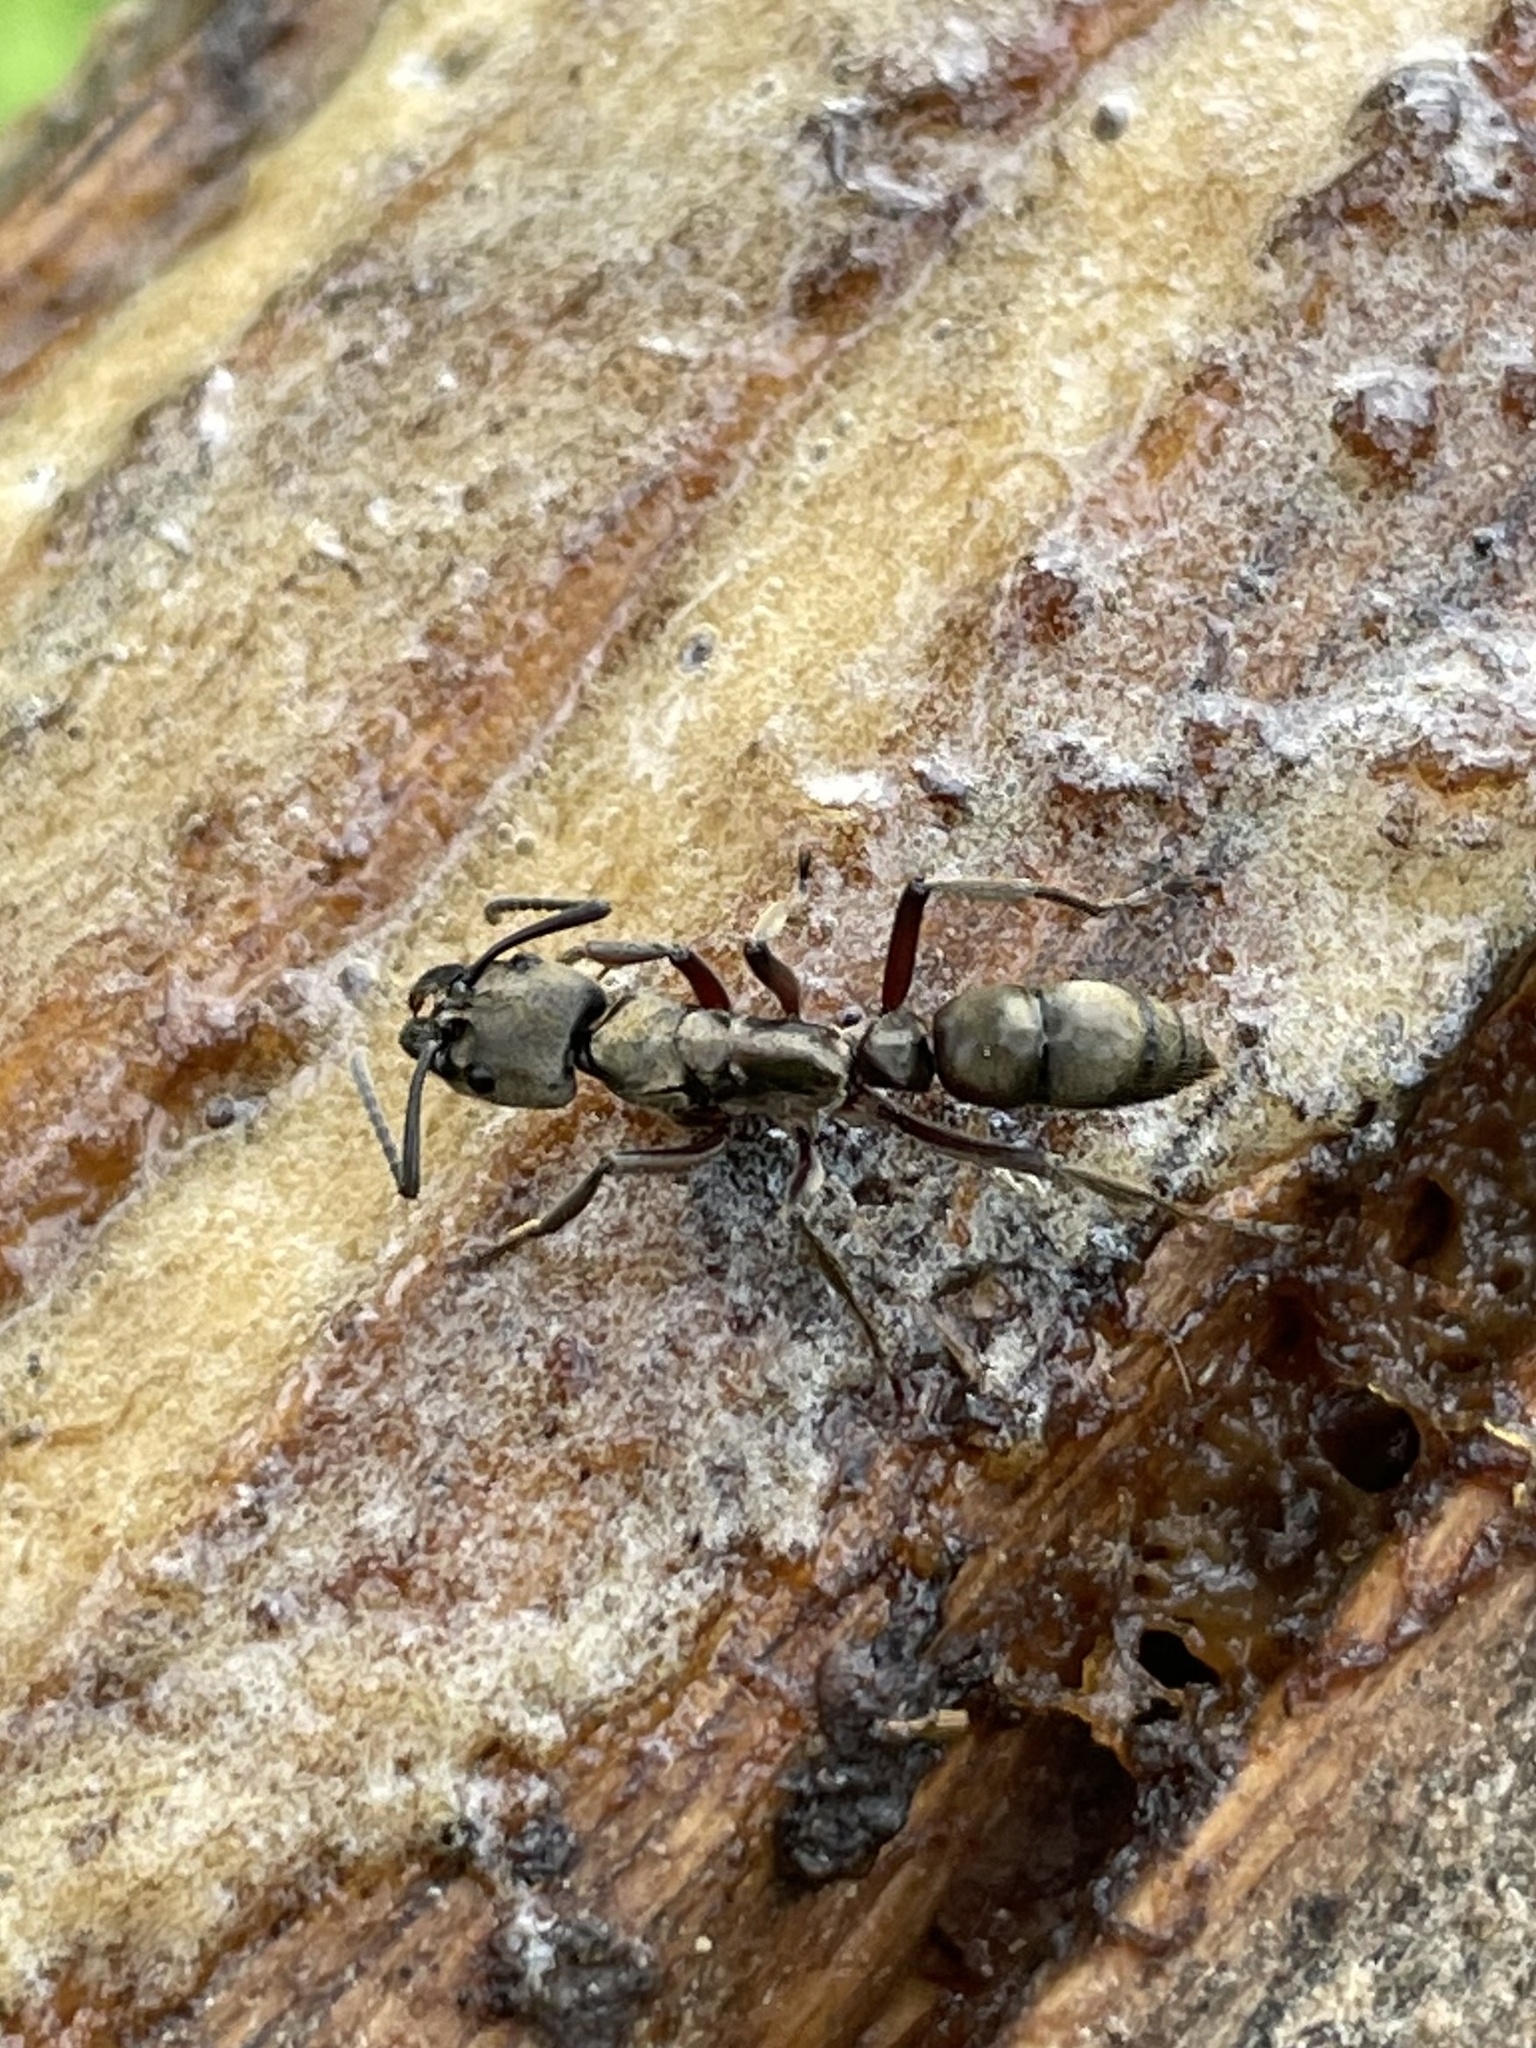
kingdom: Animalia
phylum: Arthropoda
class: Insecta
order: Hymenoptera
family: Formicidae
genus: Pachycondyla
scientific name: Pachycondyla villosa
